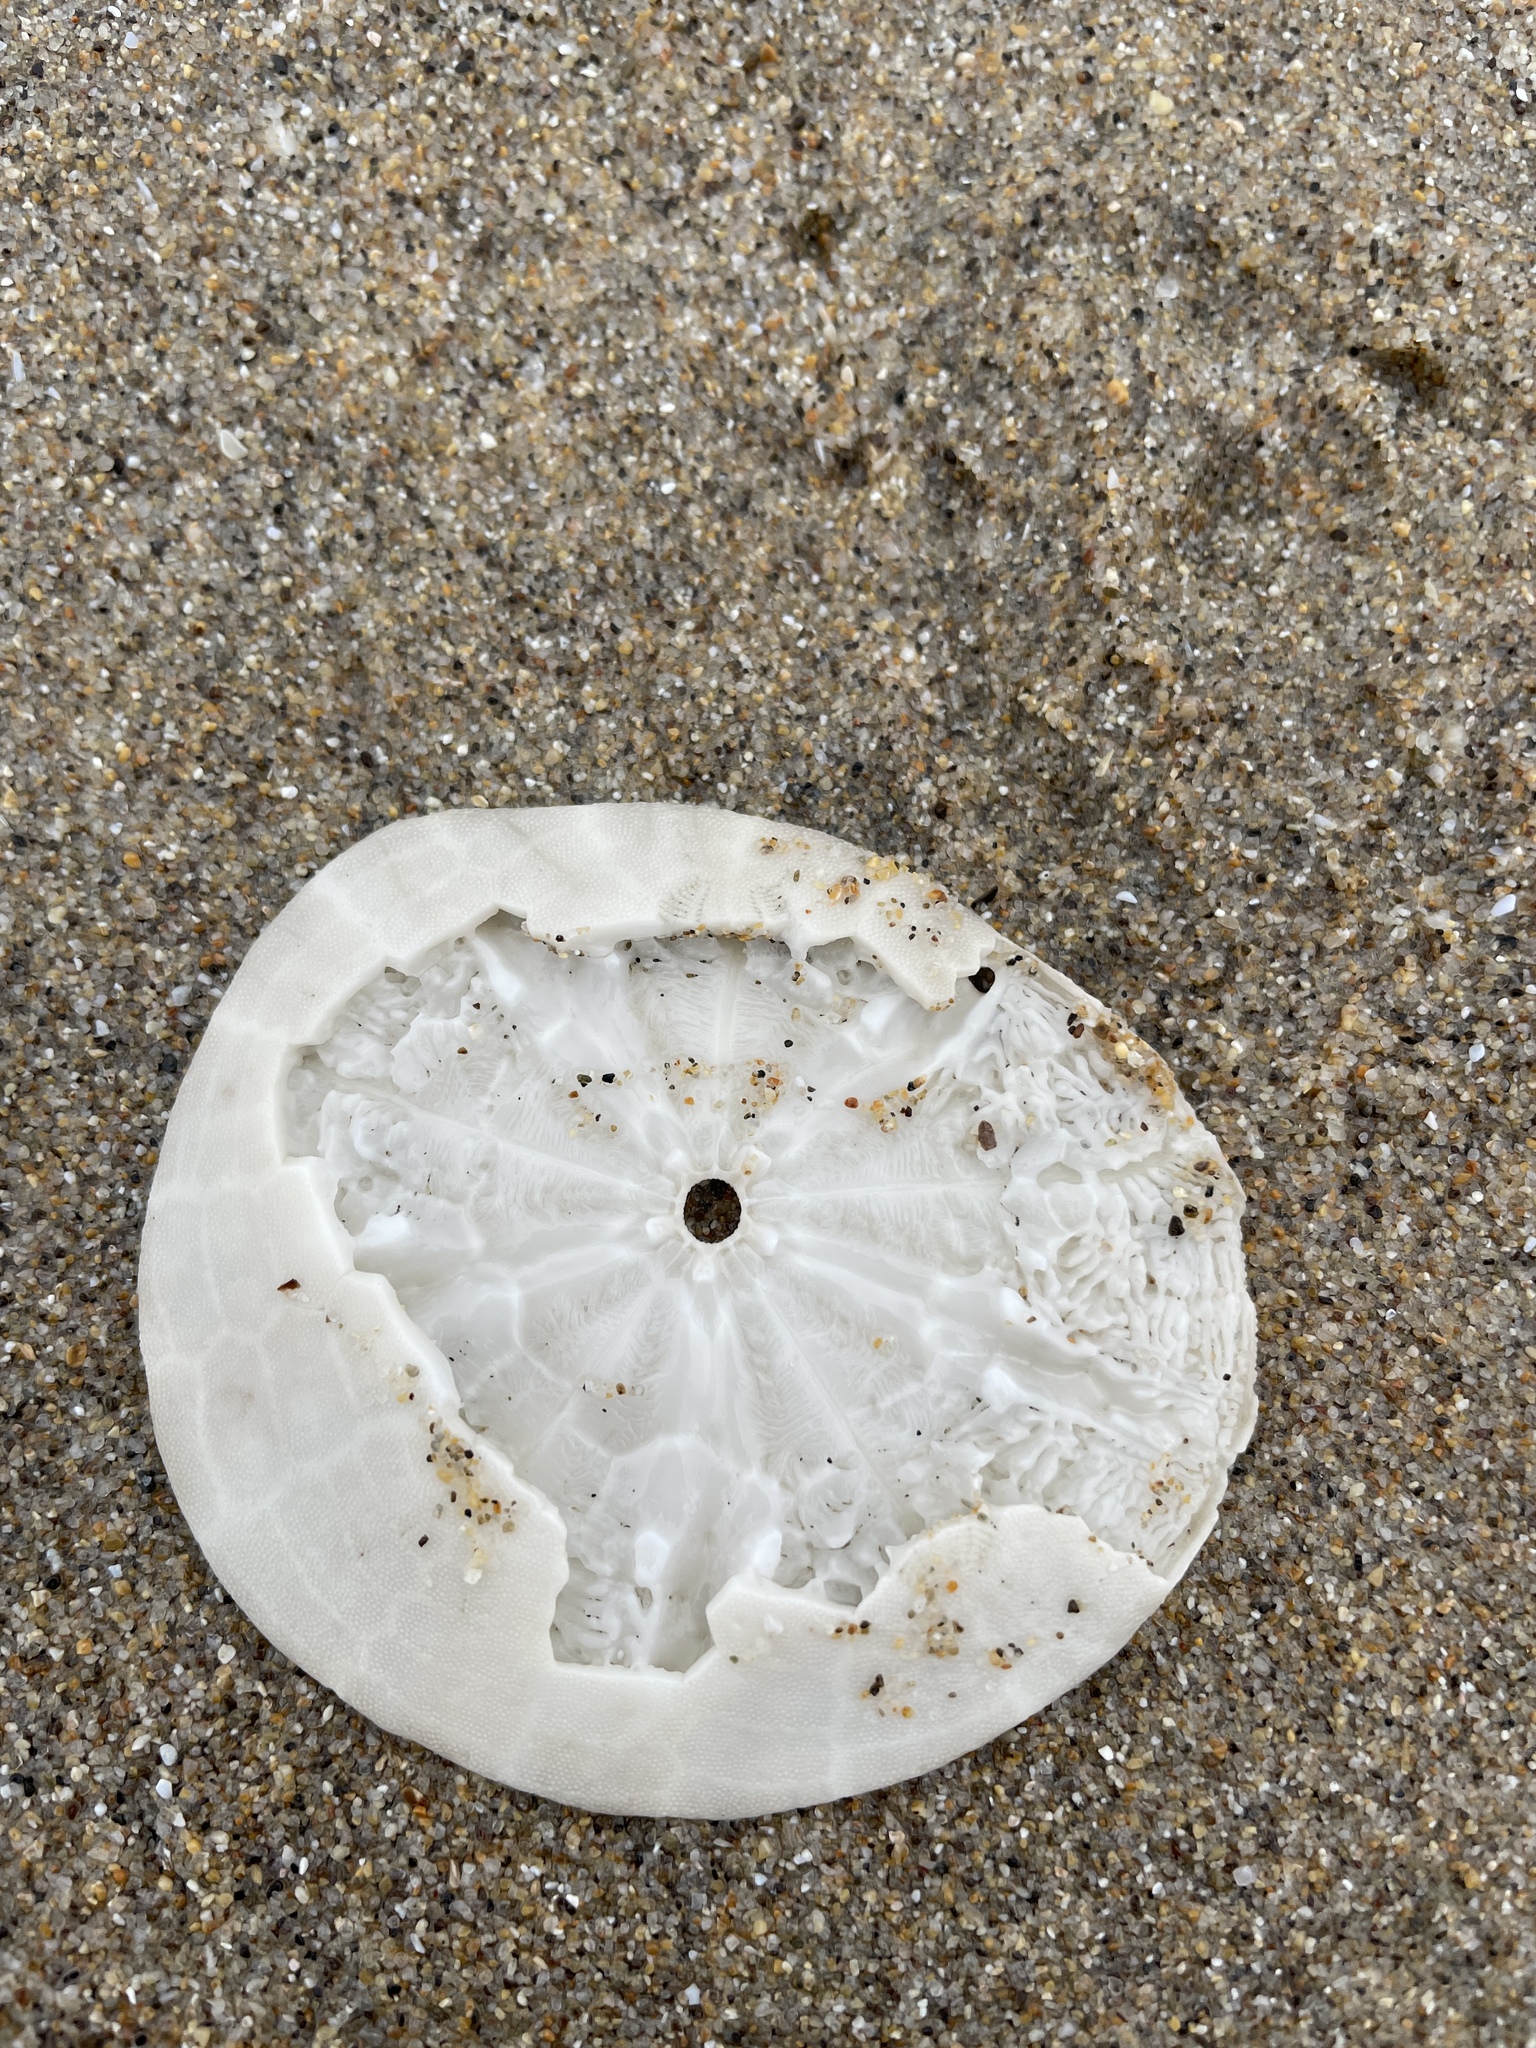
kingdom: Animalia
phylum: Echinodermata
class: Echinoidea
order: Echinolampadacea
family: Dendrasteridae
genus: Dendraster
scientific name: Dendraster excentricus
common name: Eccentric sand dollar sea urchin
